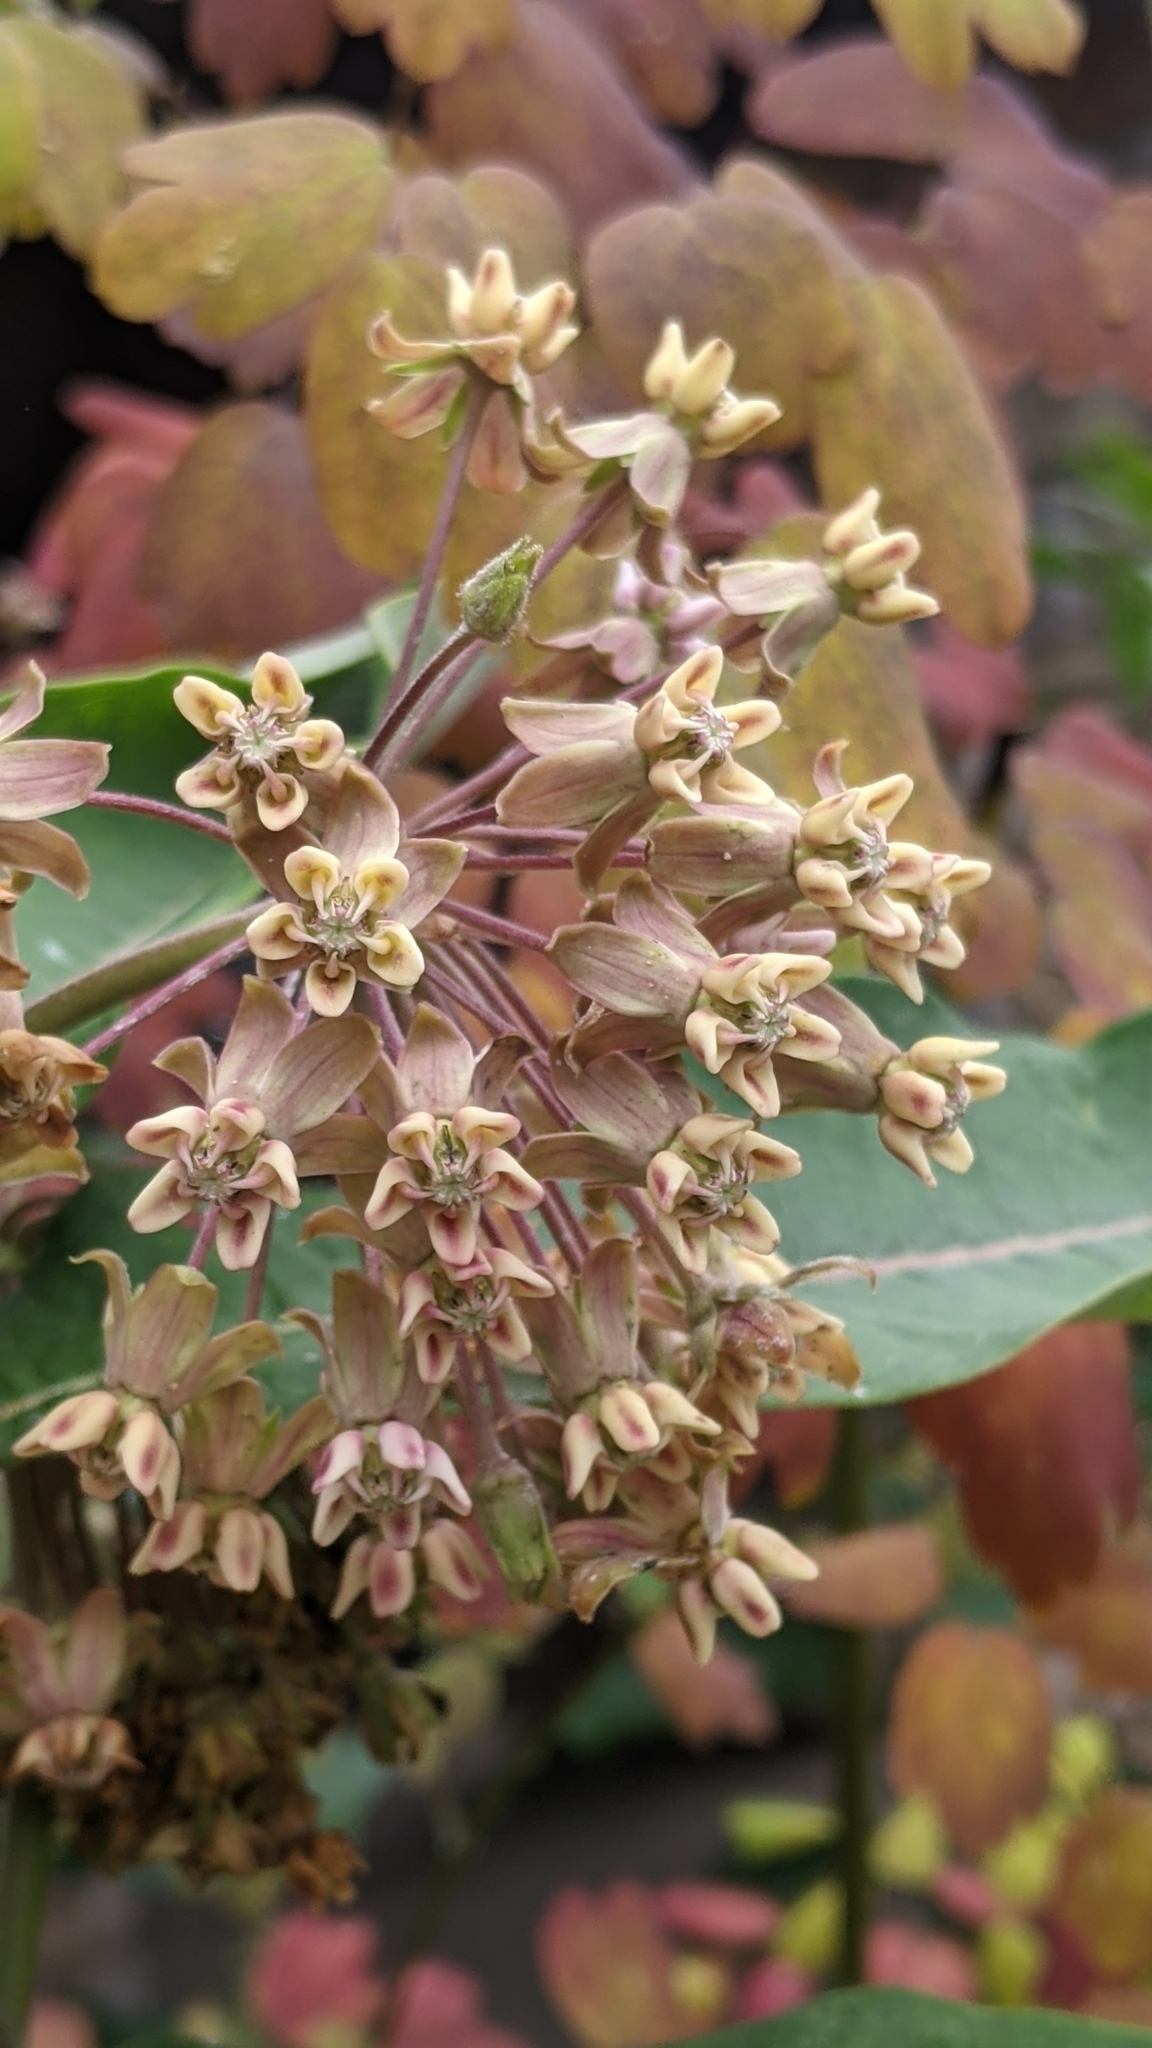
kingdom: Plantae
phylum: Tracheophyta
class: Magnoliopsida
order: Gentianales
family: Apocynaceae
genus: Asclepias
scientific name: Asclepias syriaca
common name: Common milkweed
